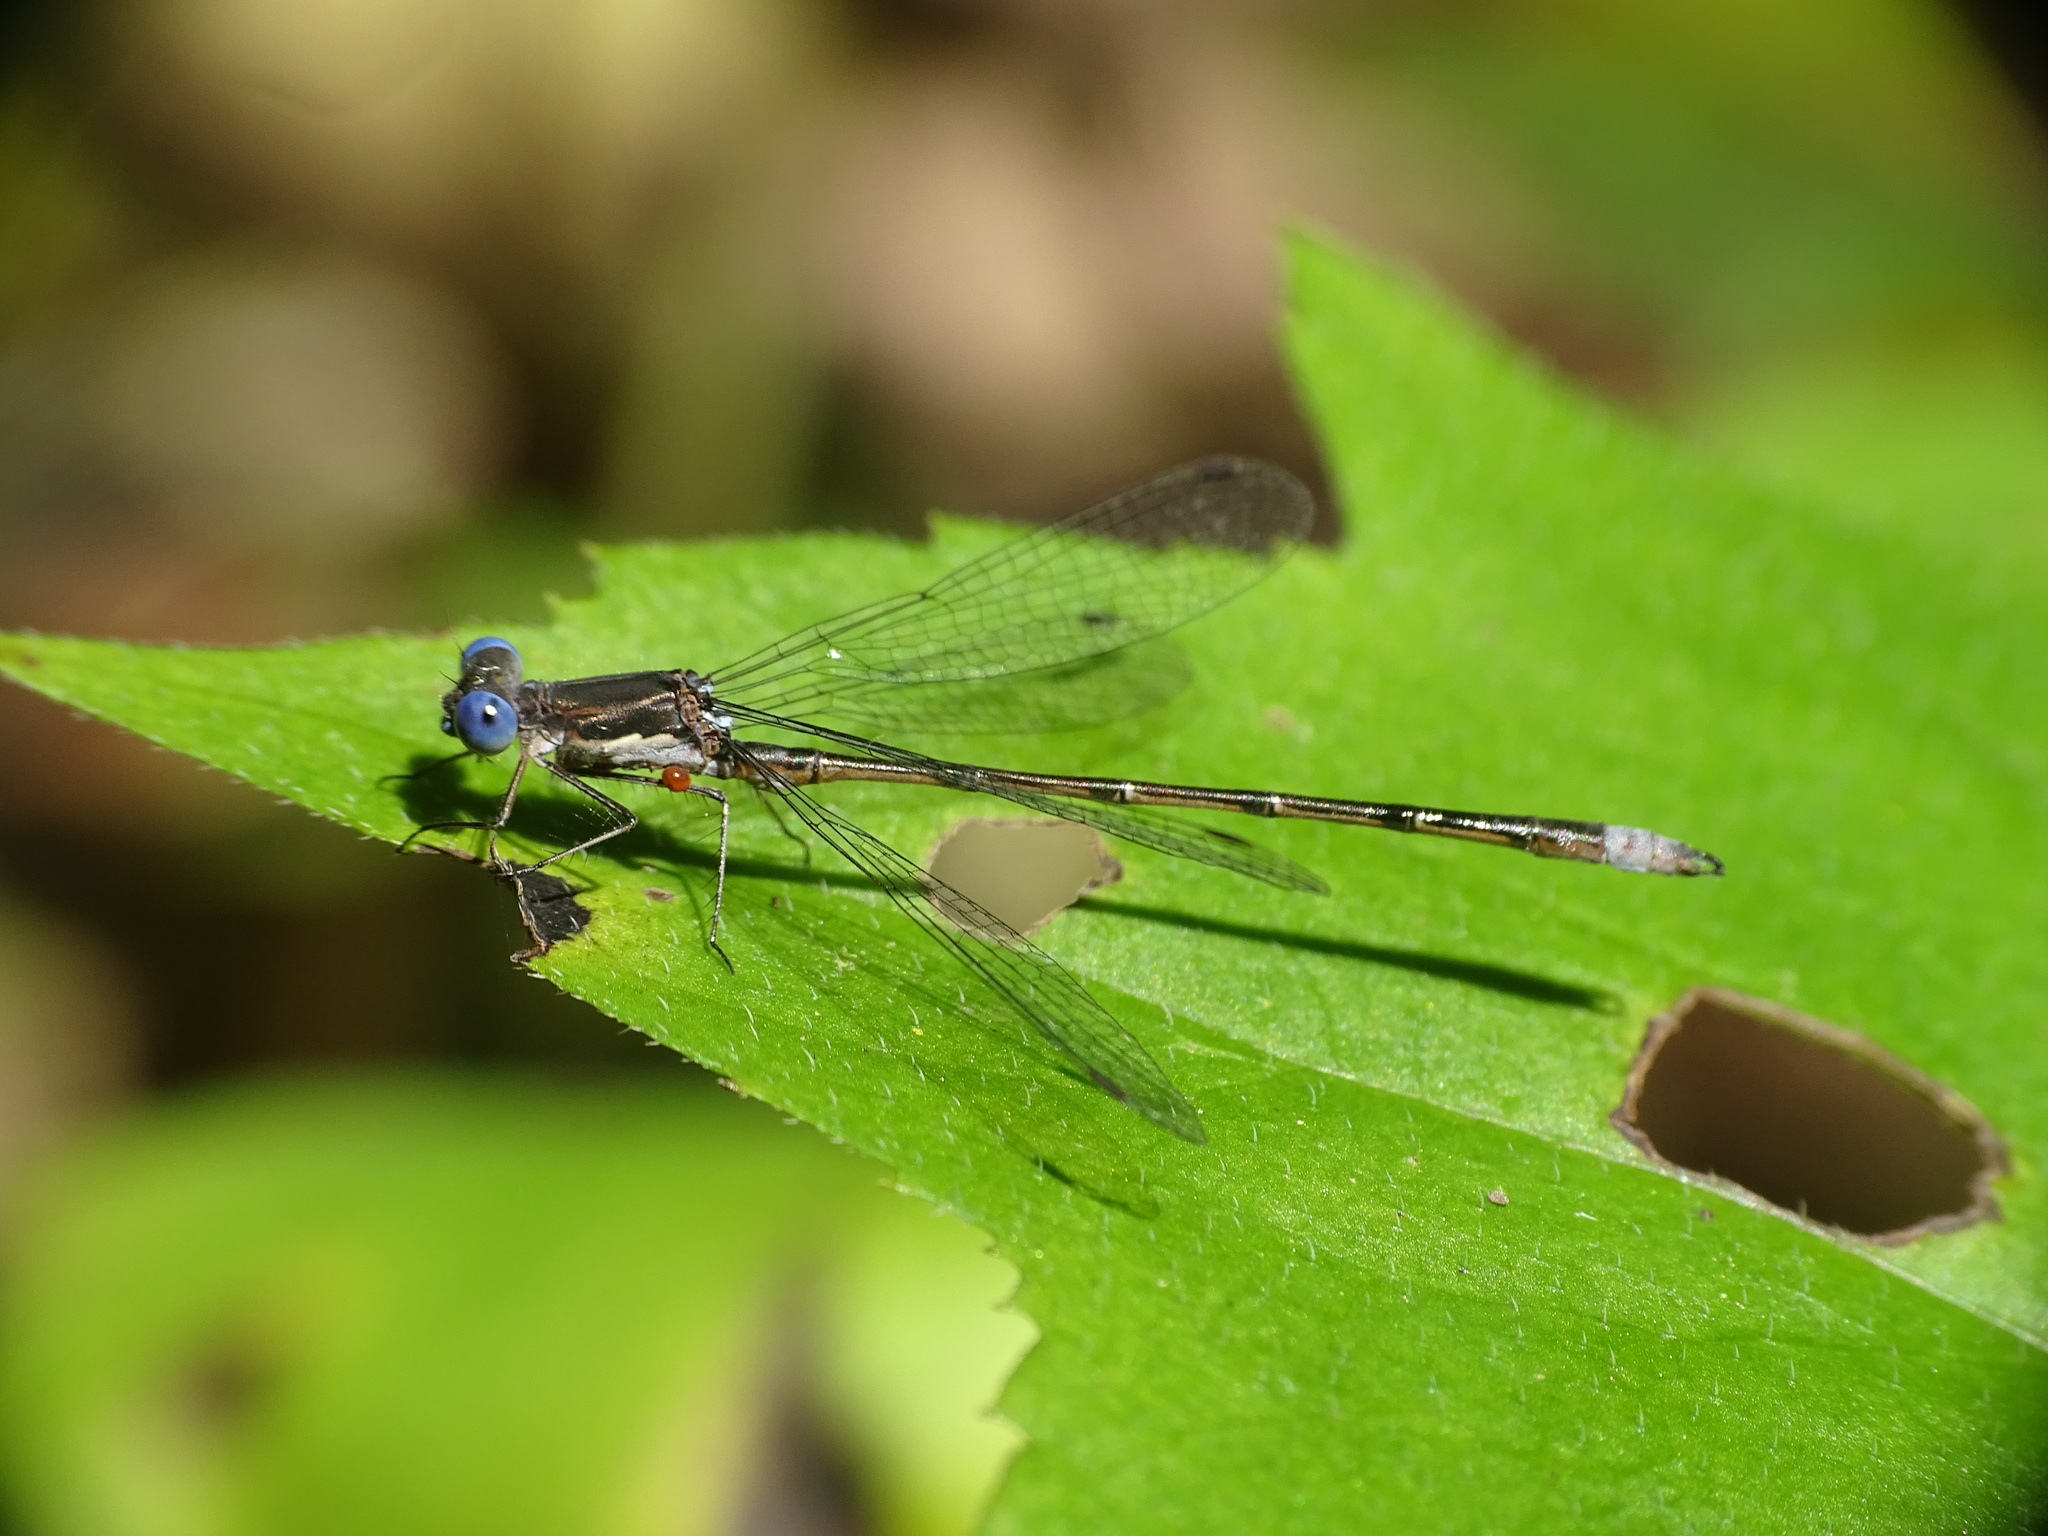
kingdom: Animalia
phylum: Arthropoda
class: Insecta
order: Odonata
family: Lestidae
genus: Lestes
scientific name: Lestes congener
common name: Spotted spreadwing
